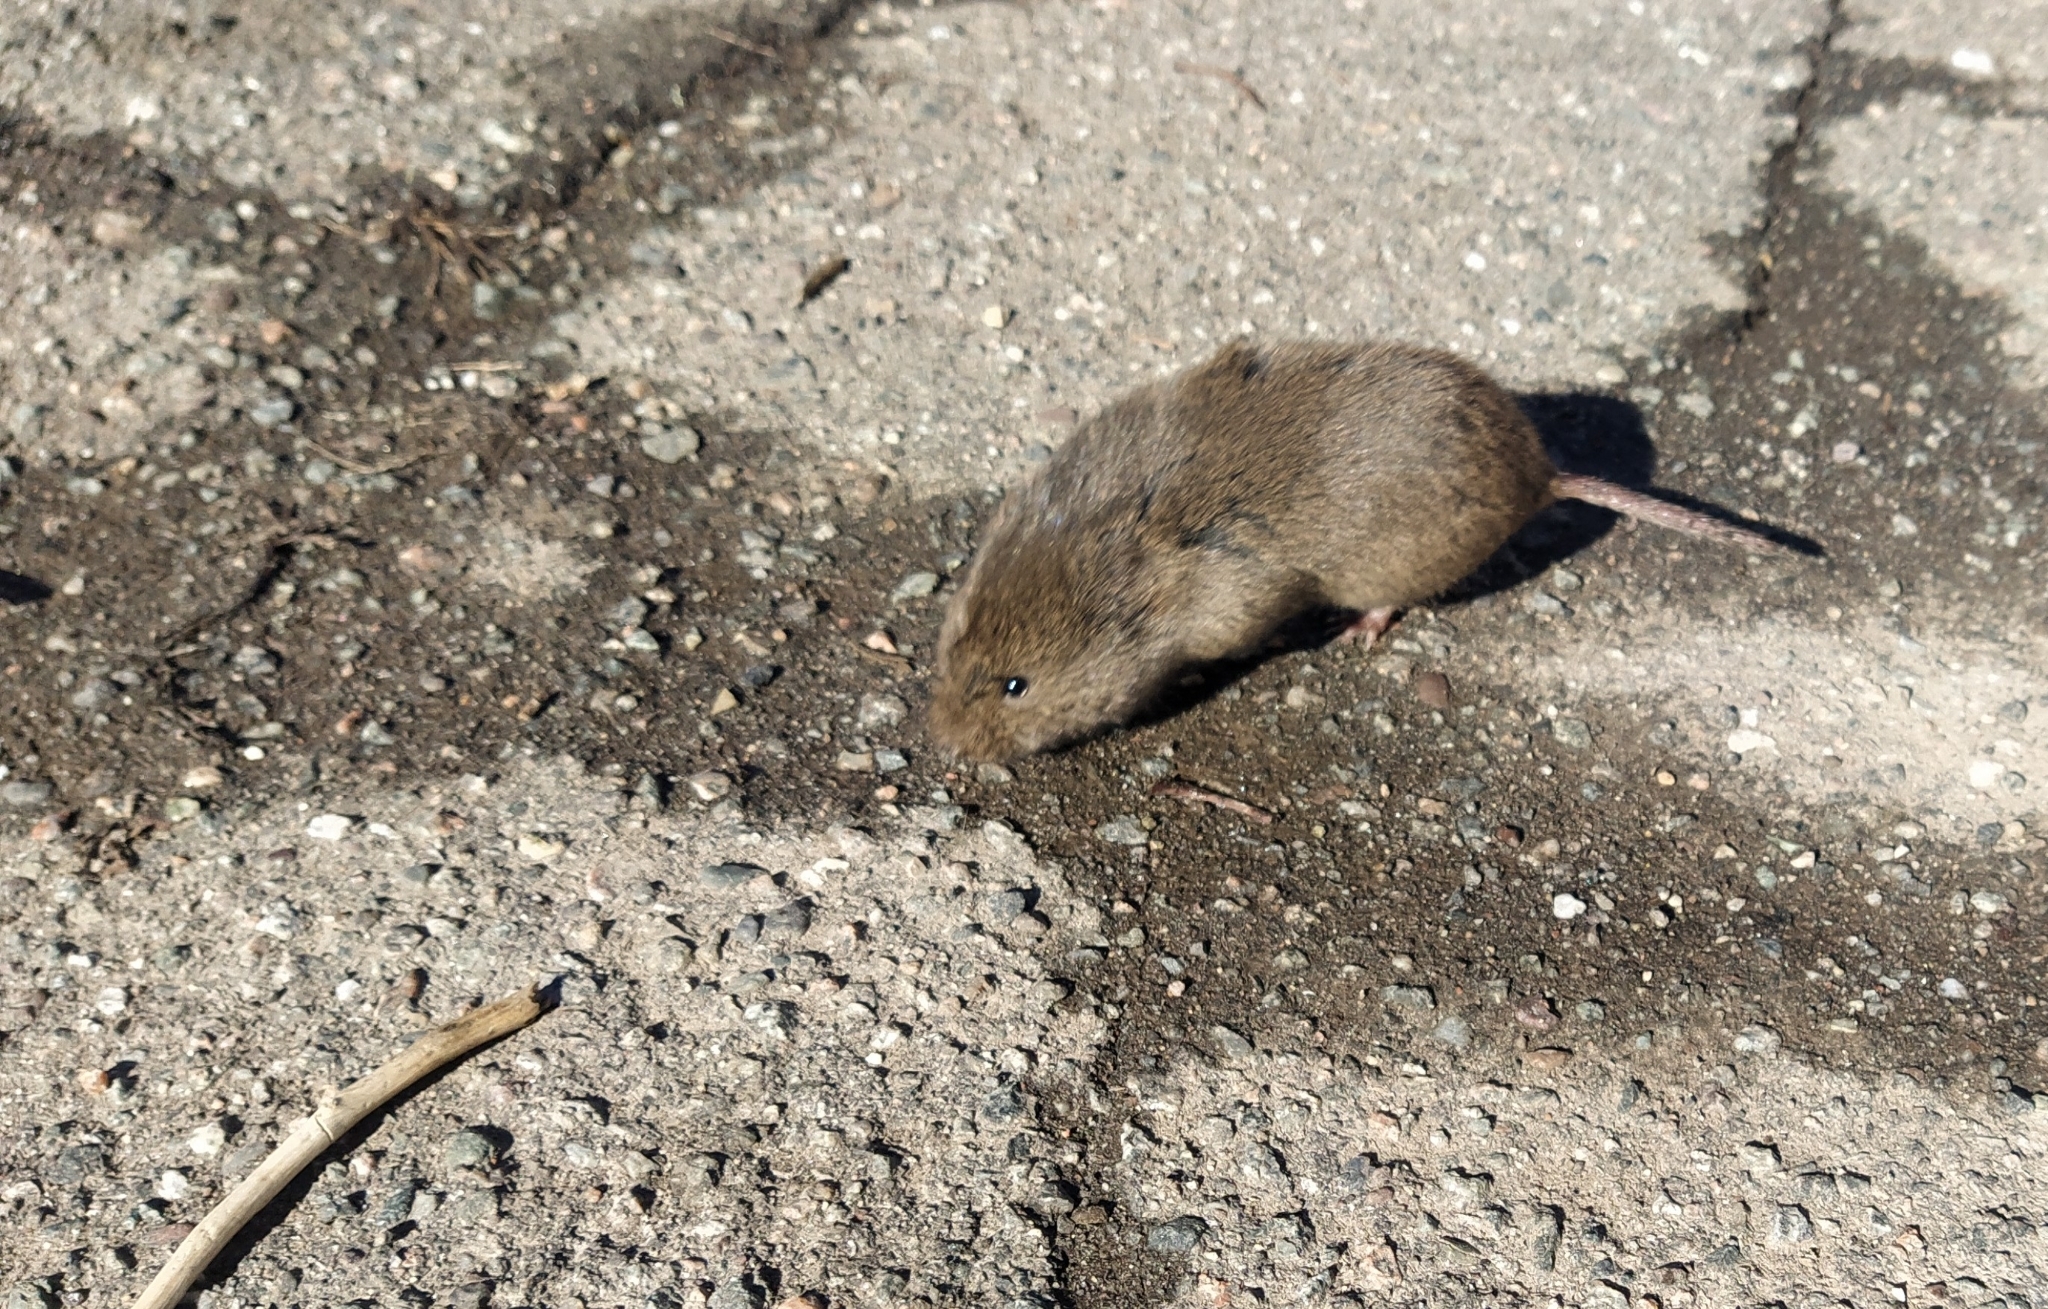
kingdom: Animalia
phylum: Chordata
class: Mammalia
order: Rodentia
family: Muridae
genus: Mus
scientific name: Mus musculus
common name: House mouse
